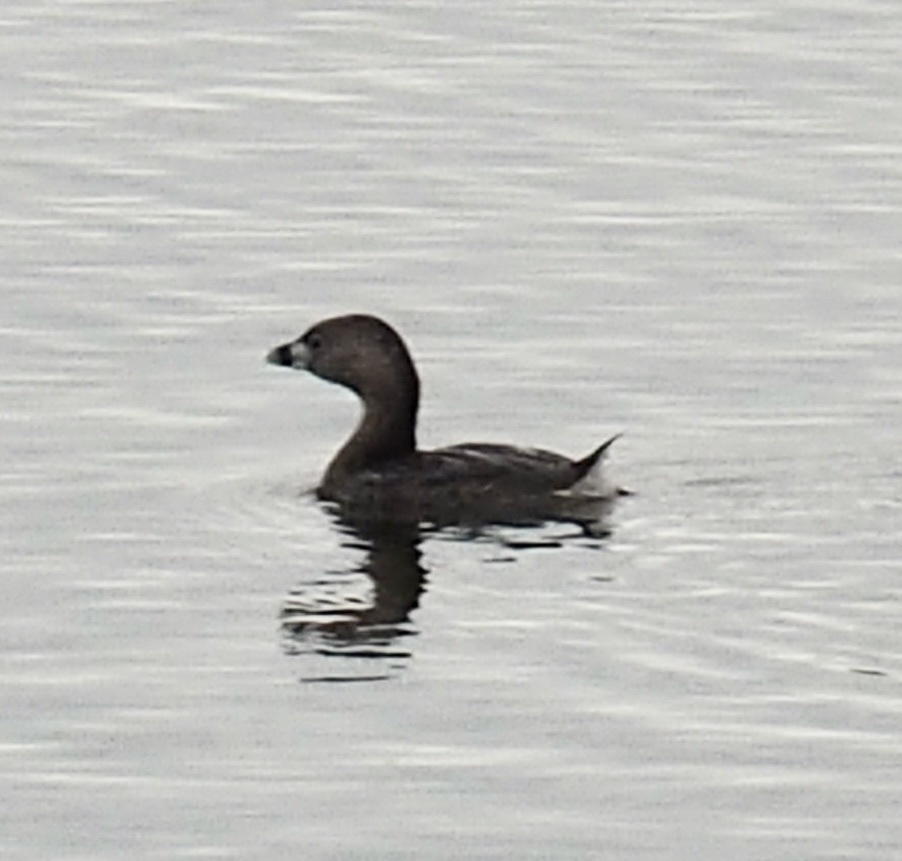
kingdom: Animalia
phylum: Chordata
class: Aves
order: Podicipediformes
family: Podicipedidae
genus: Podilymbus
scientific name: Podilymbus podiceps
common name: Pied-billed grebe
